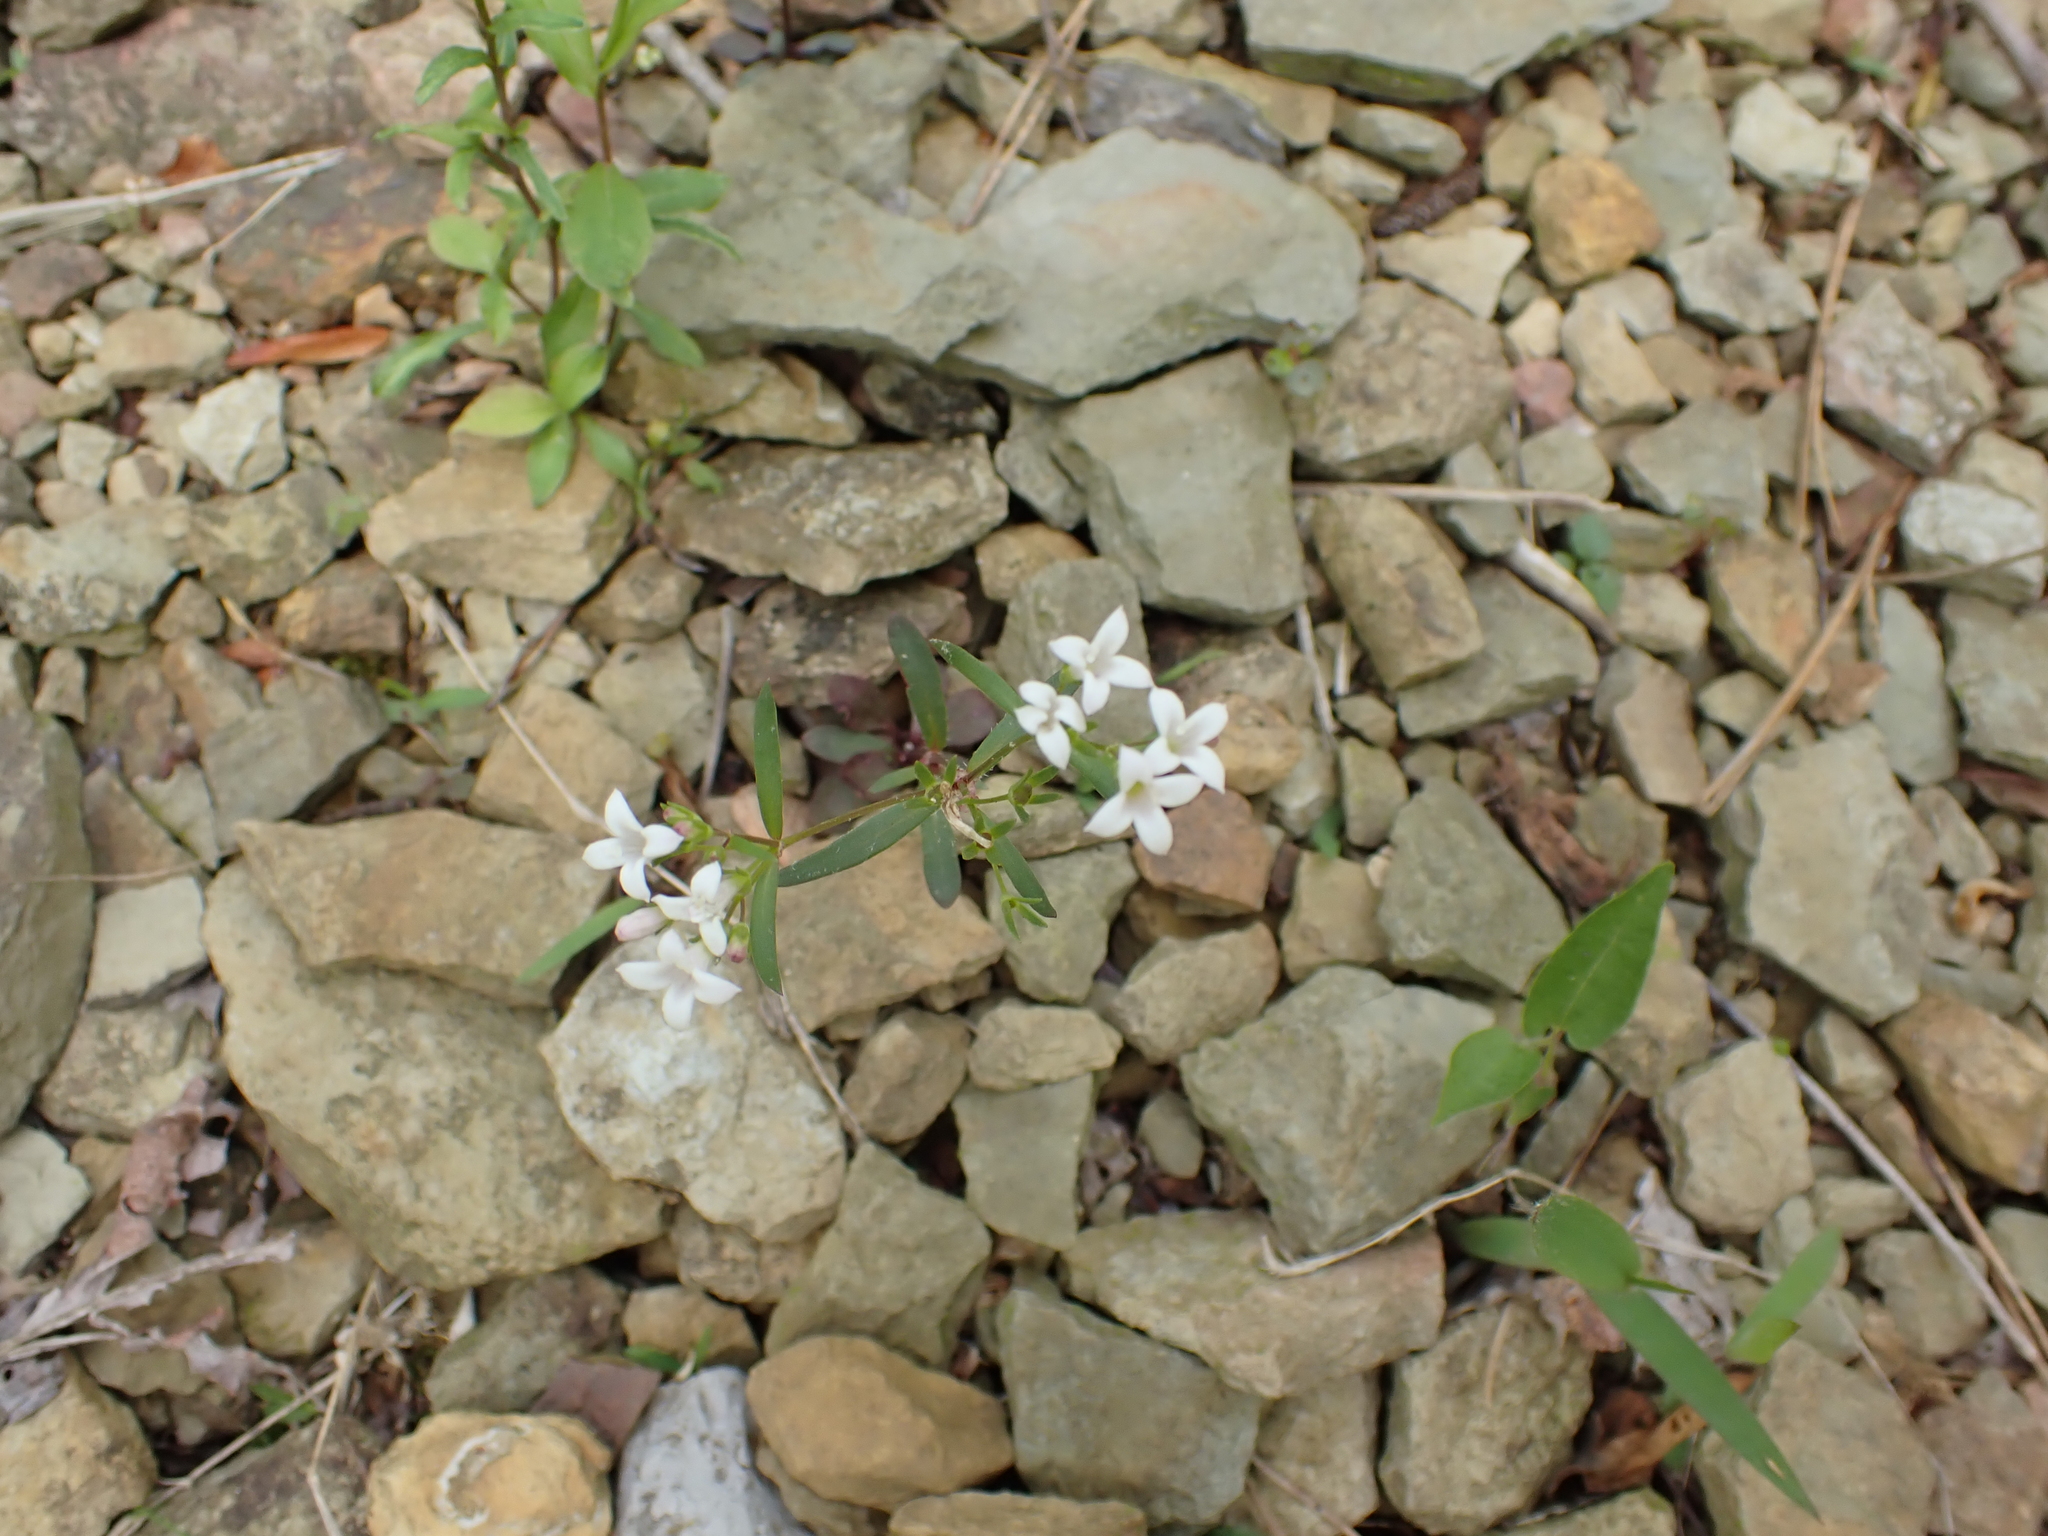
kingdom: Plantae
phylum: Tracheophyta
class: Magnoliopsida
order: Gentianales
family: Rubiaceae
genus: Houstonia
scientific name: Houstonia longifolia
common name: Long-leaved bluets
